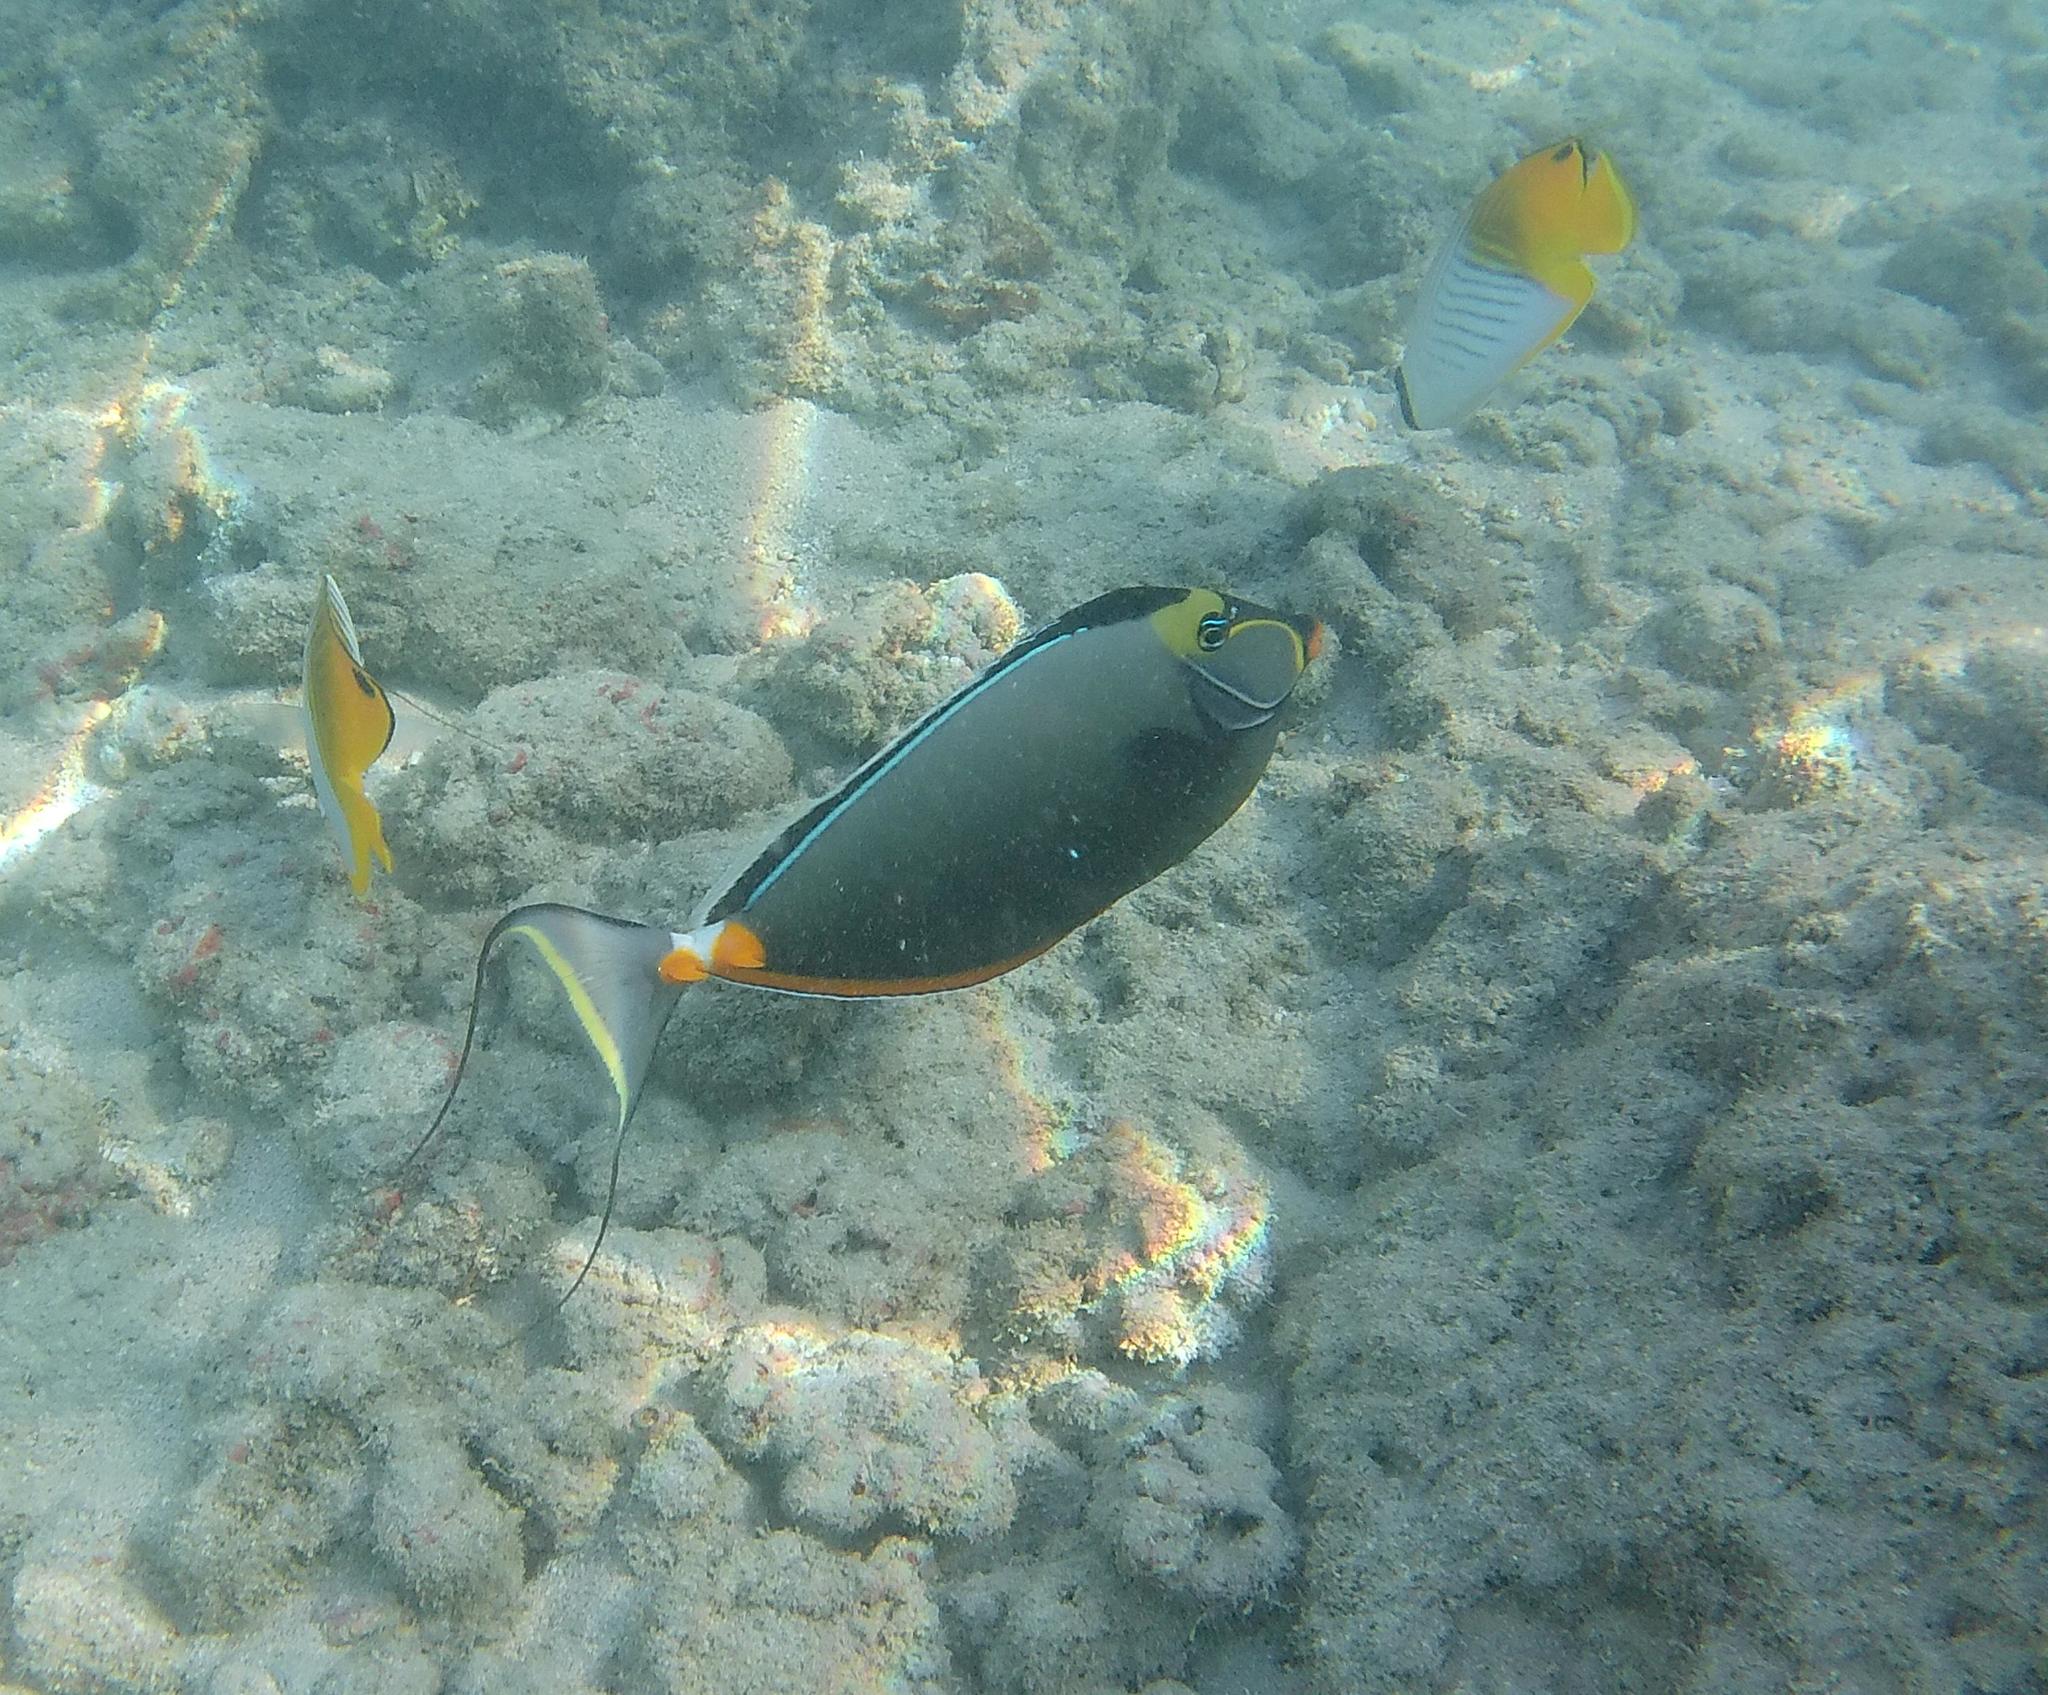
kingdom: Animalia
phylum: Chordata
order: Perciformes
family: Acanthuridae
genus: Naso
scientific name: Naso lituratus
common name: Orangespine unicornfish
